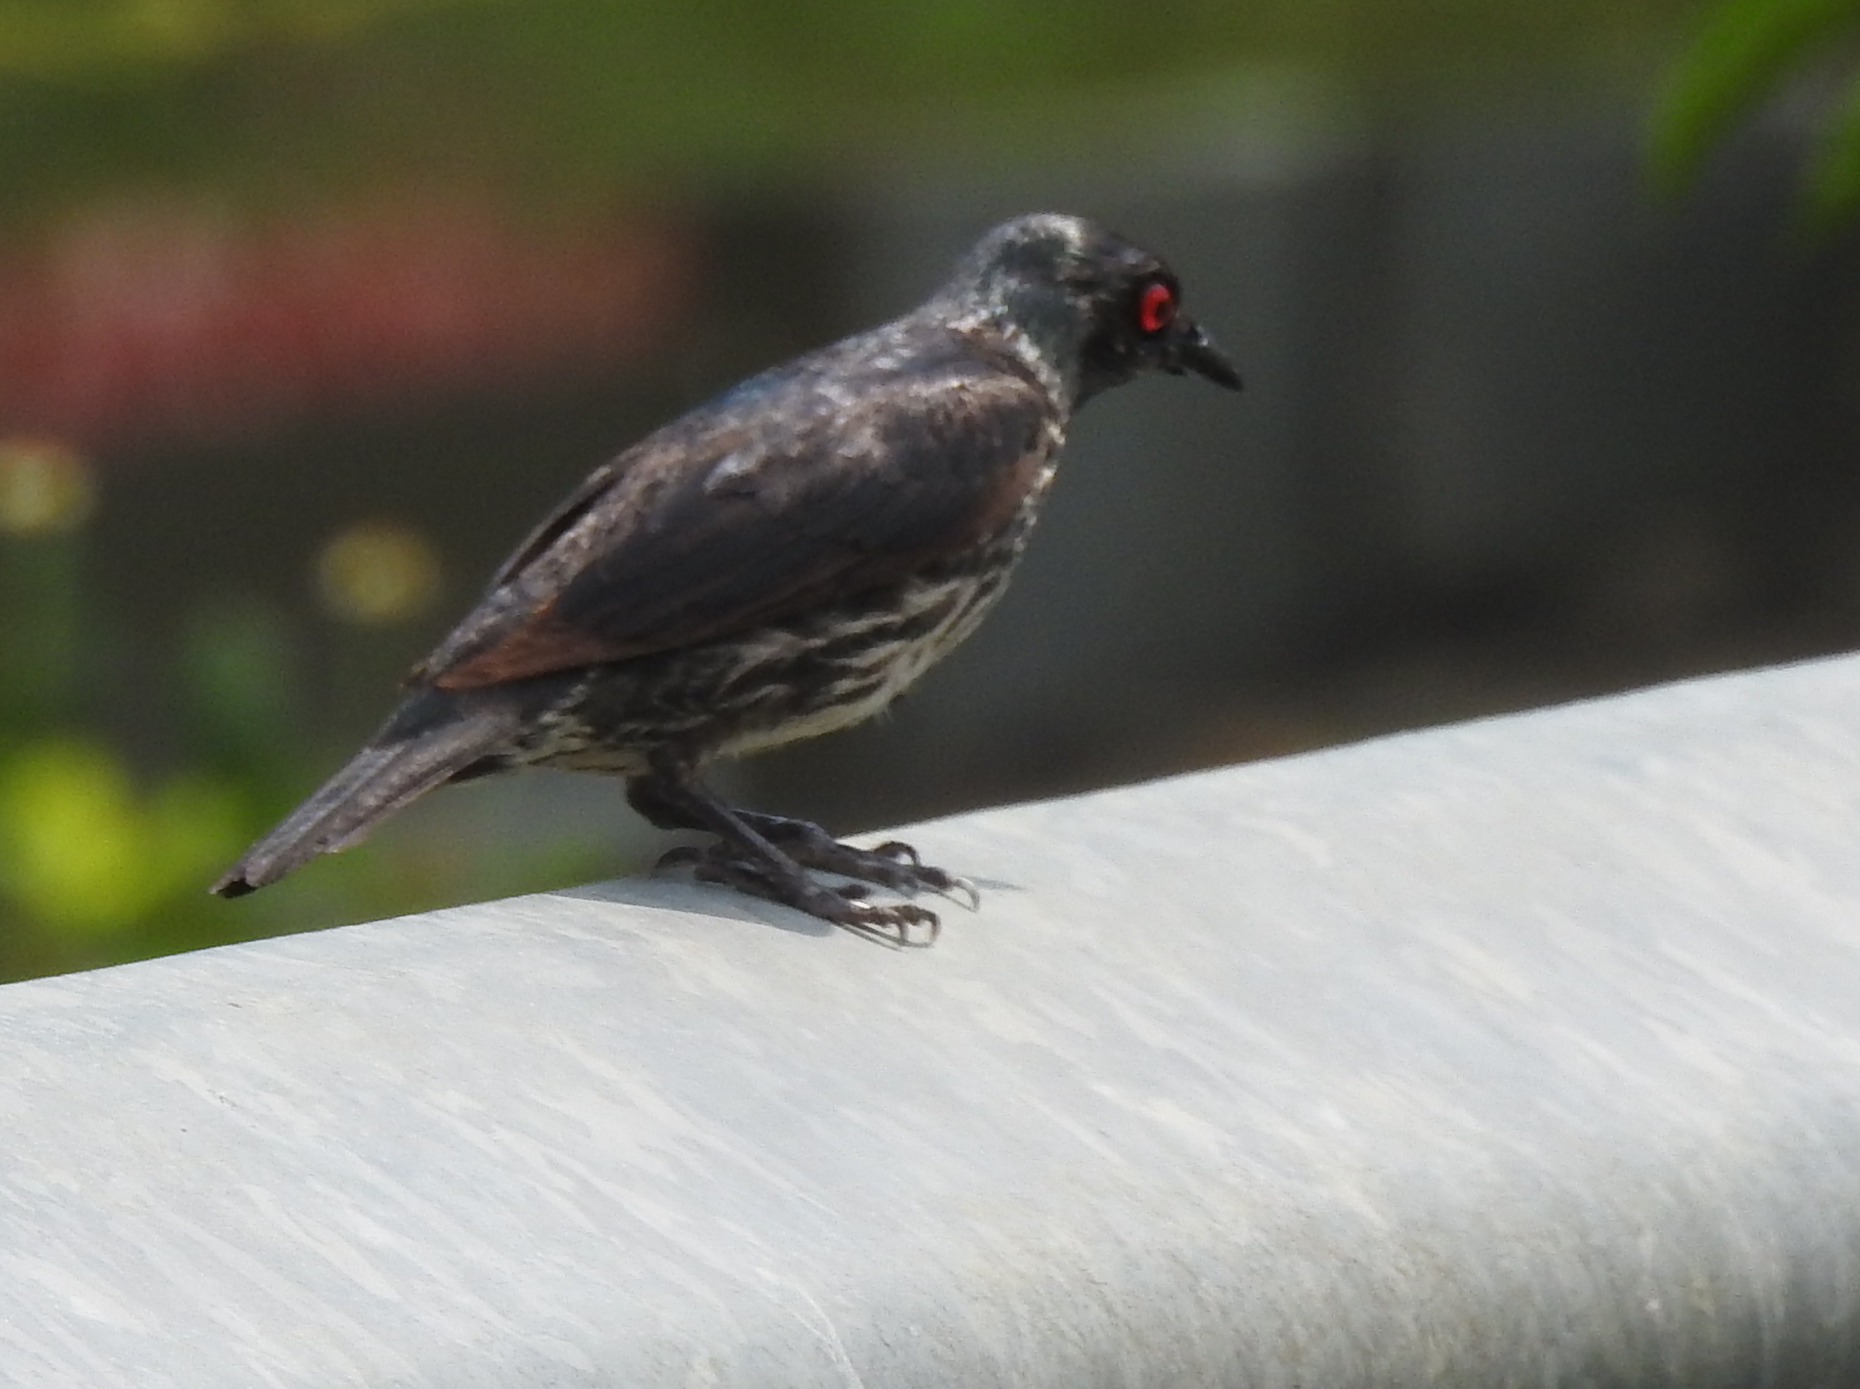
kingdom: Animalia
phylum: Chordata
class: Aves
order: Passeriformes
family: Sturnidae
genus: Aplonis
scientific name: Aplonis panayensis
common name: Asian glossy starling
